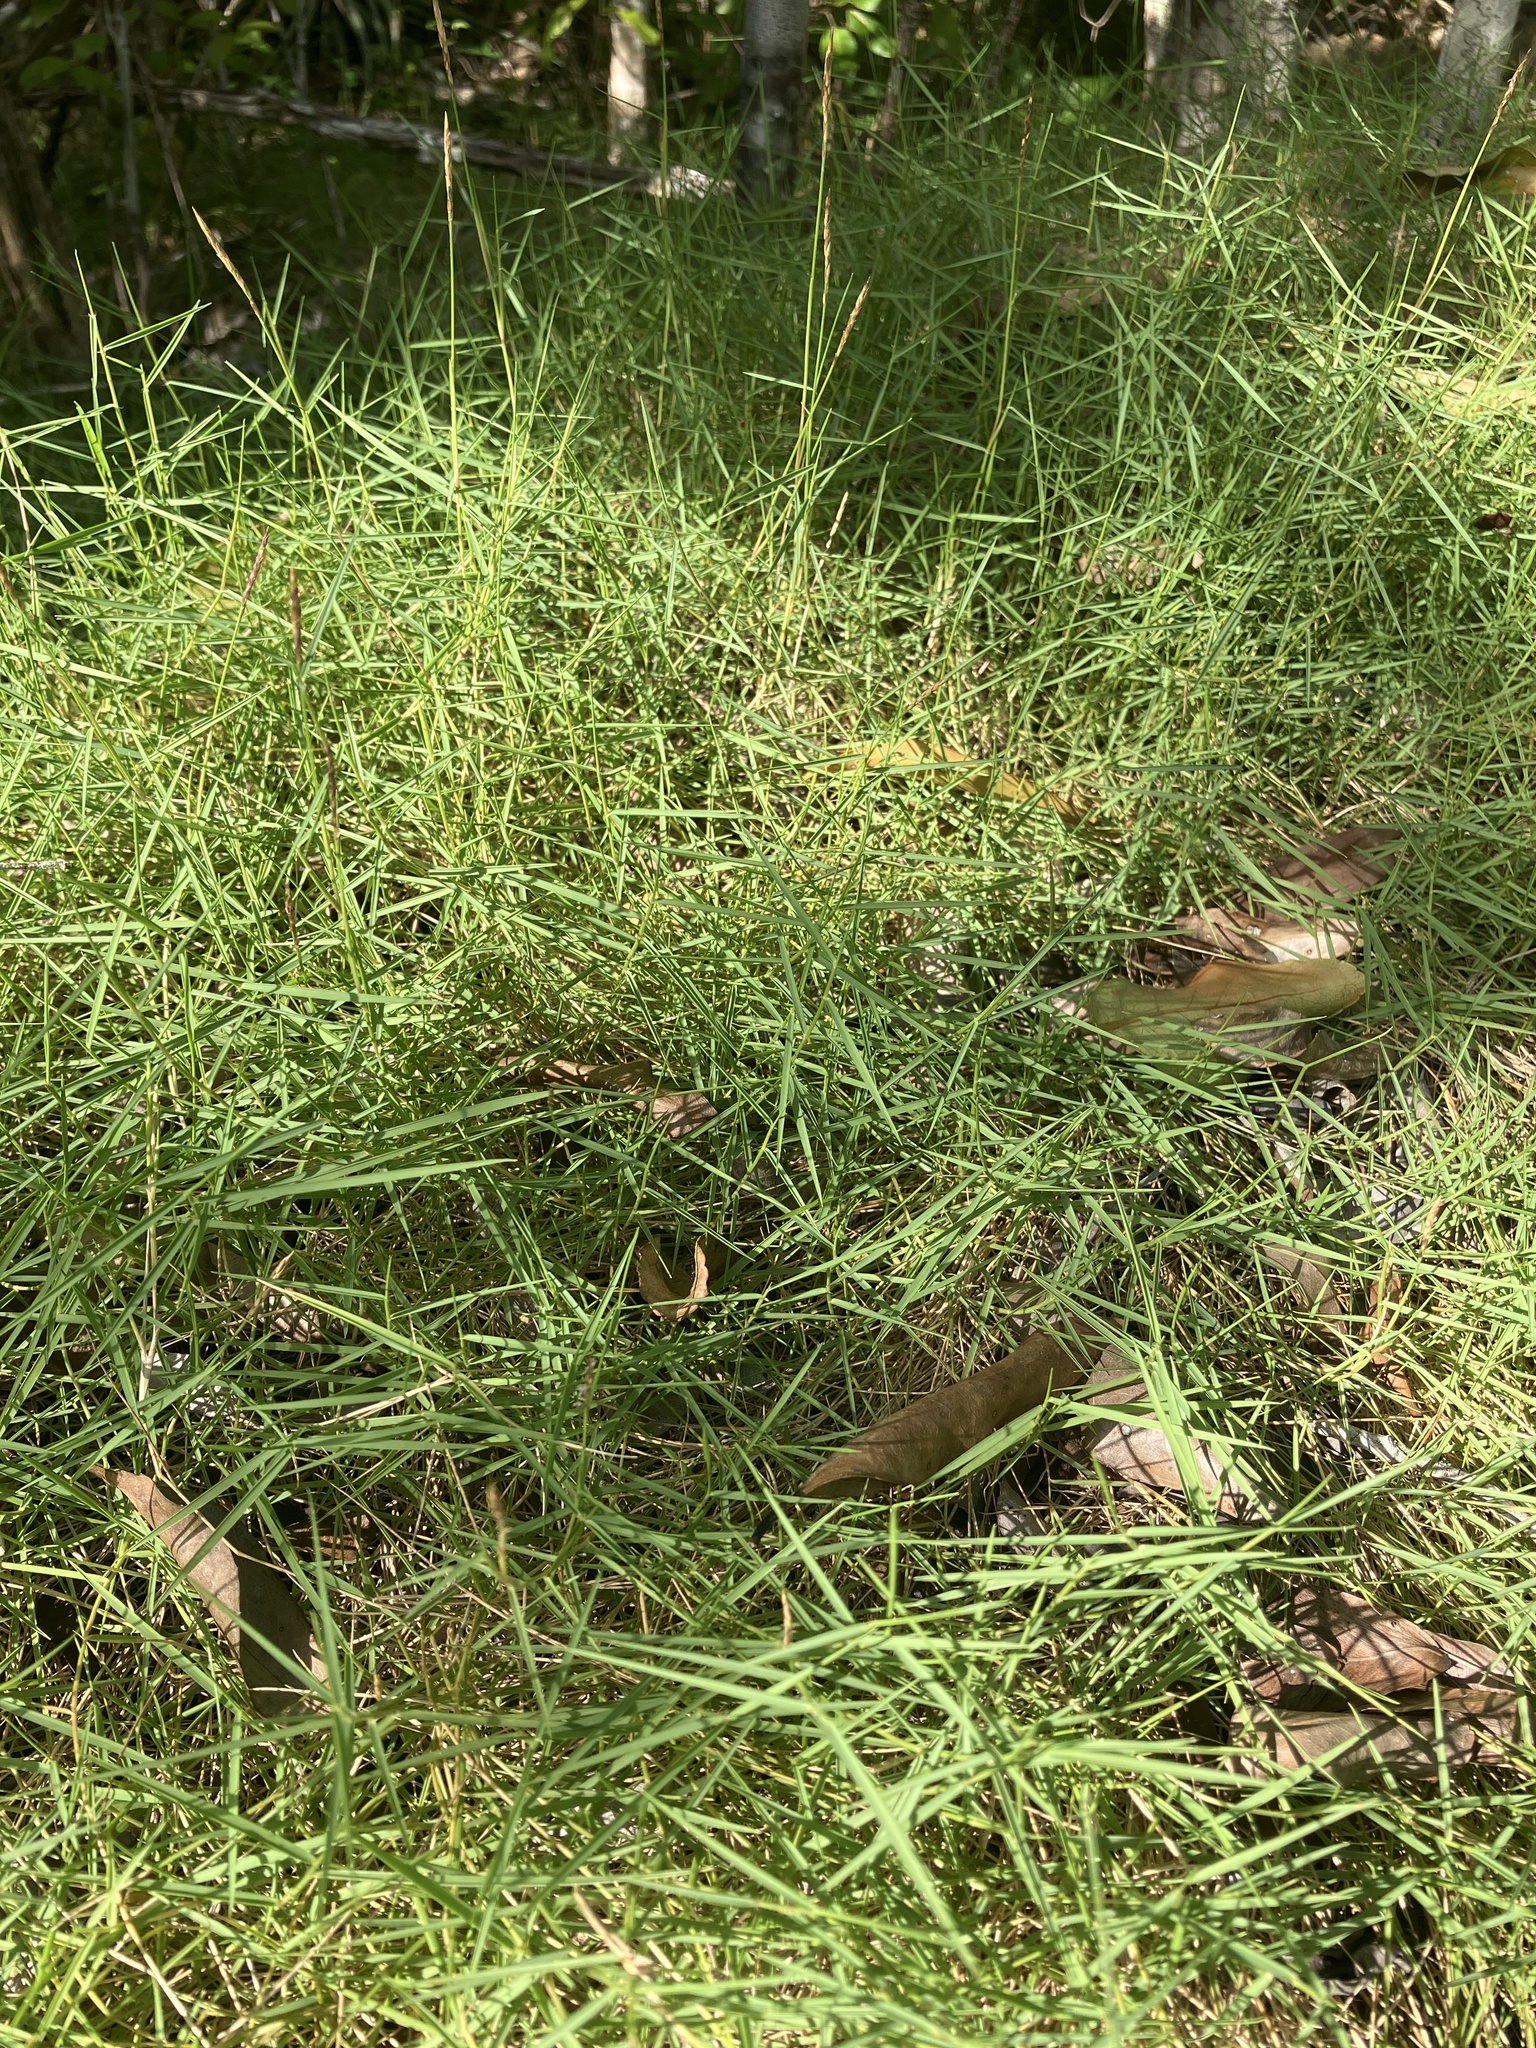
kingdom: Plantae
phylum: Tracheophyta
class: Liliopsida
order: Poales
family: Poaceae
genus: Zoysia
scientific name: Zoysia matrella
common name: Manila grass
